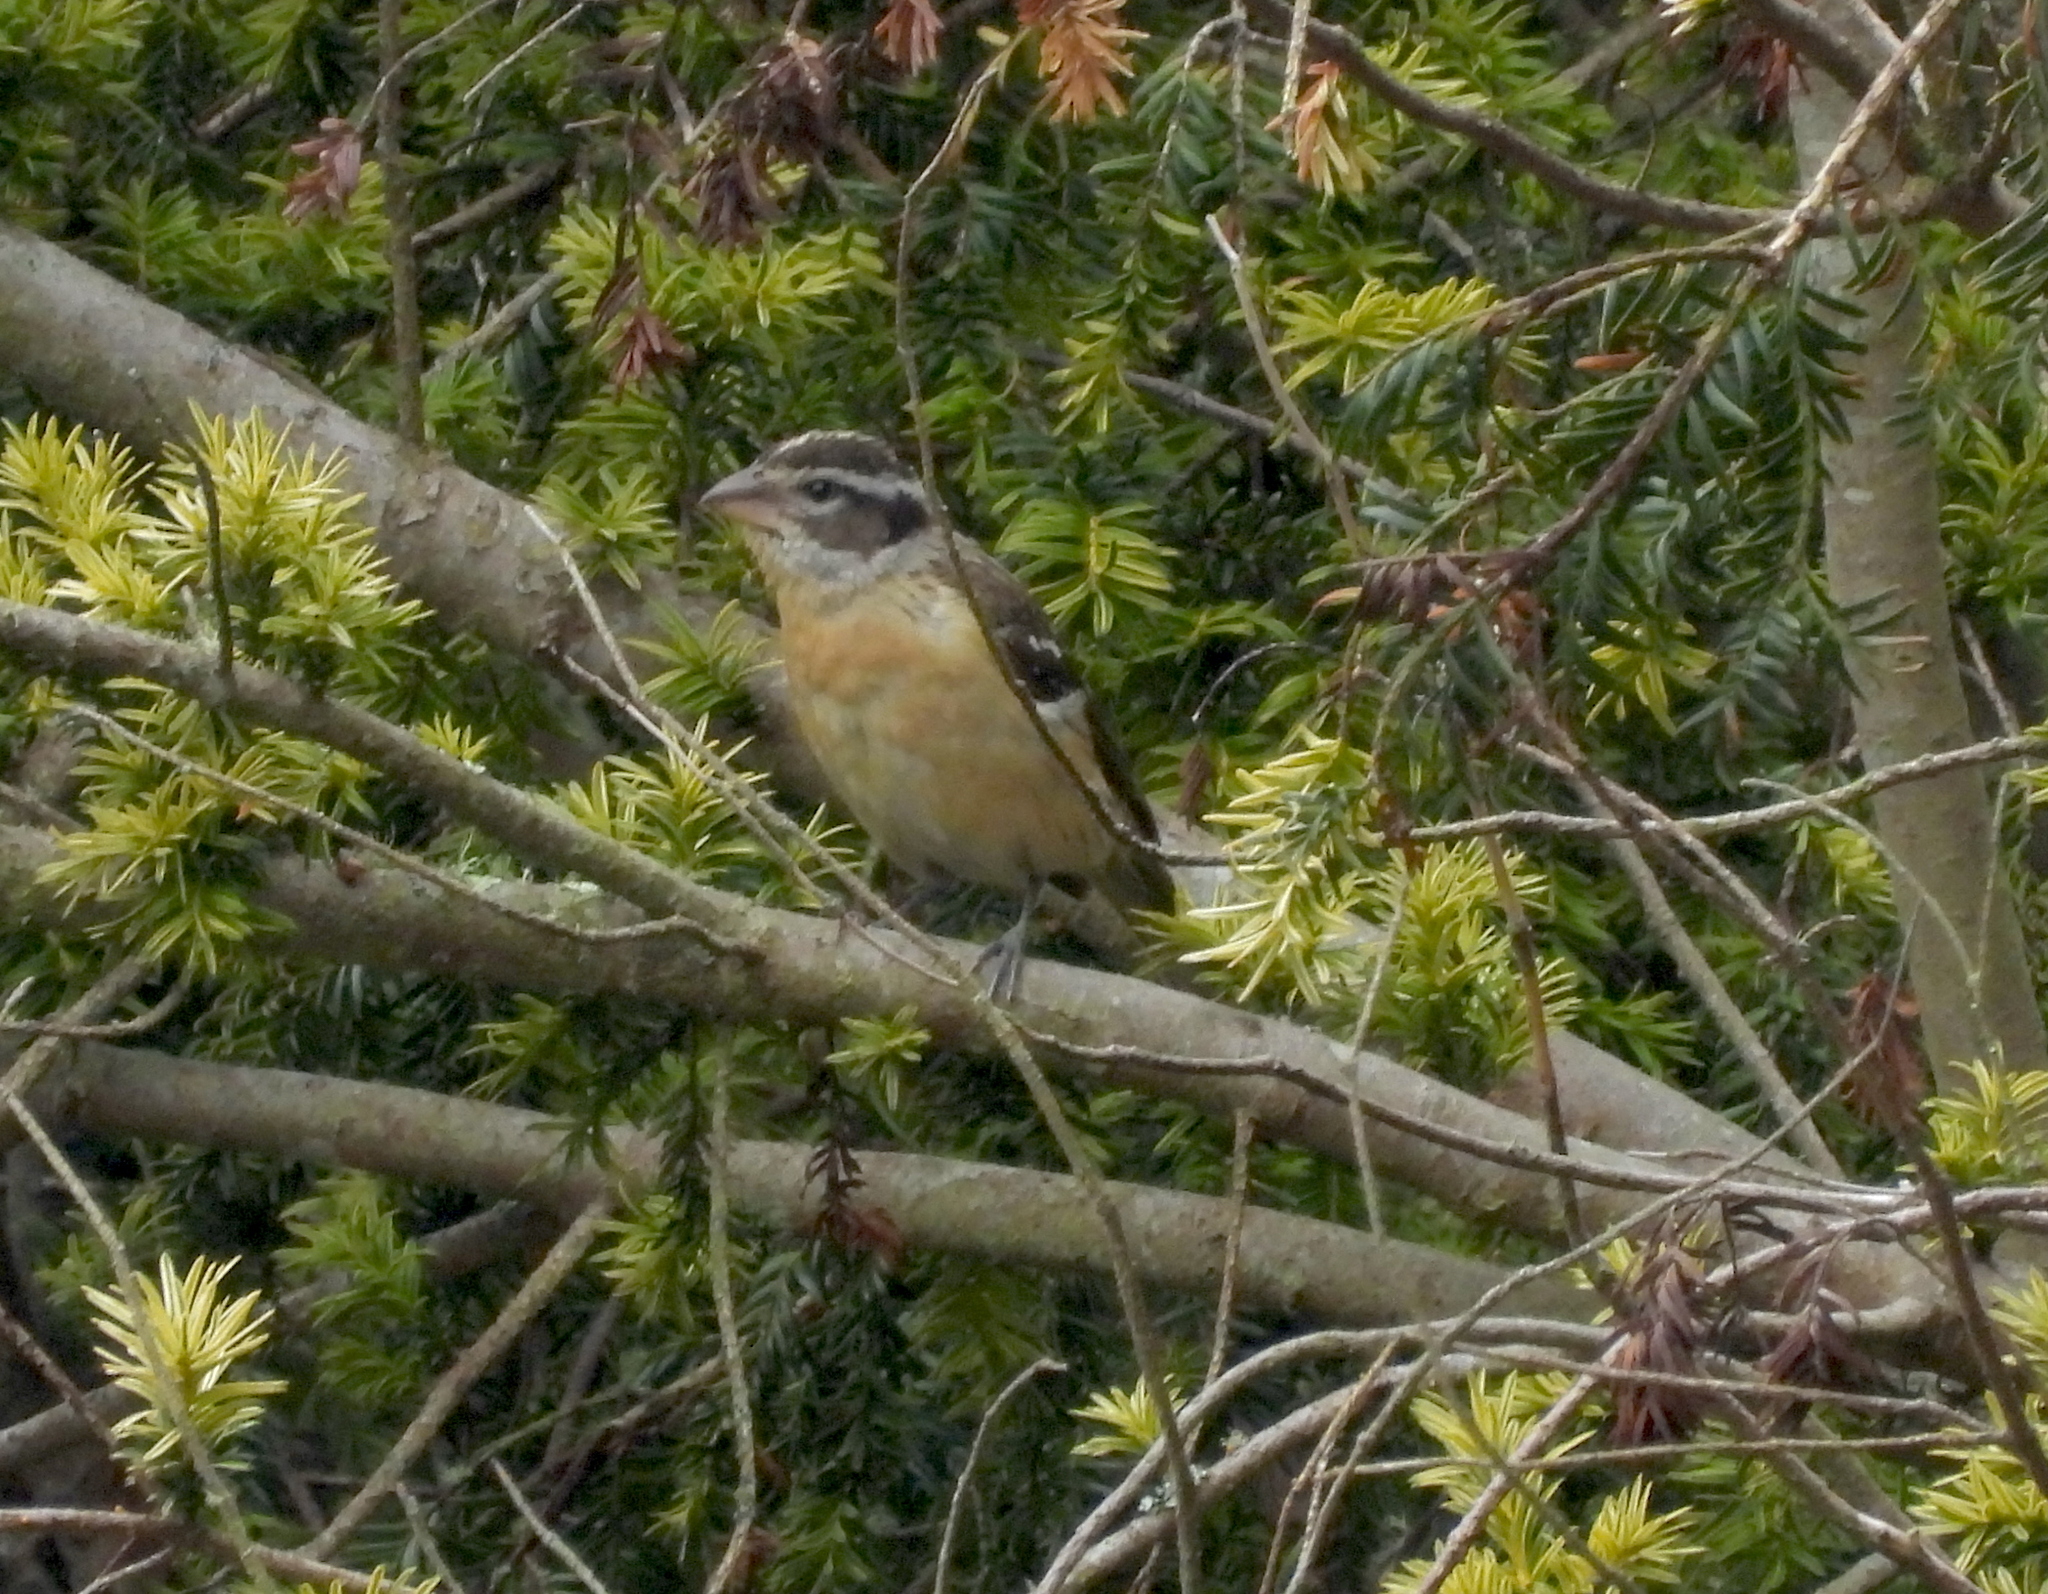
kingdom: Animalia
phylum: Chordata
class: Aves
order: Passeriformes
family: Cardinalidae
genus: Pheucticus
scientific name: Pheucticus melanocephalus
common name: Black-headed grosbeak
